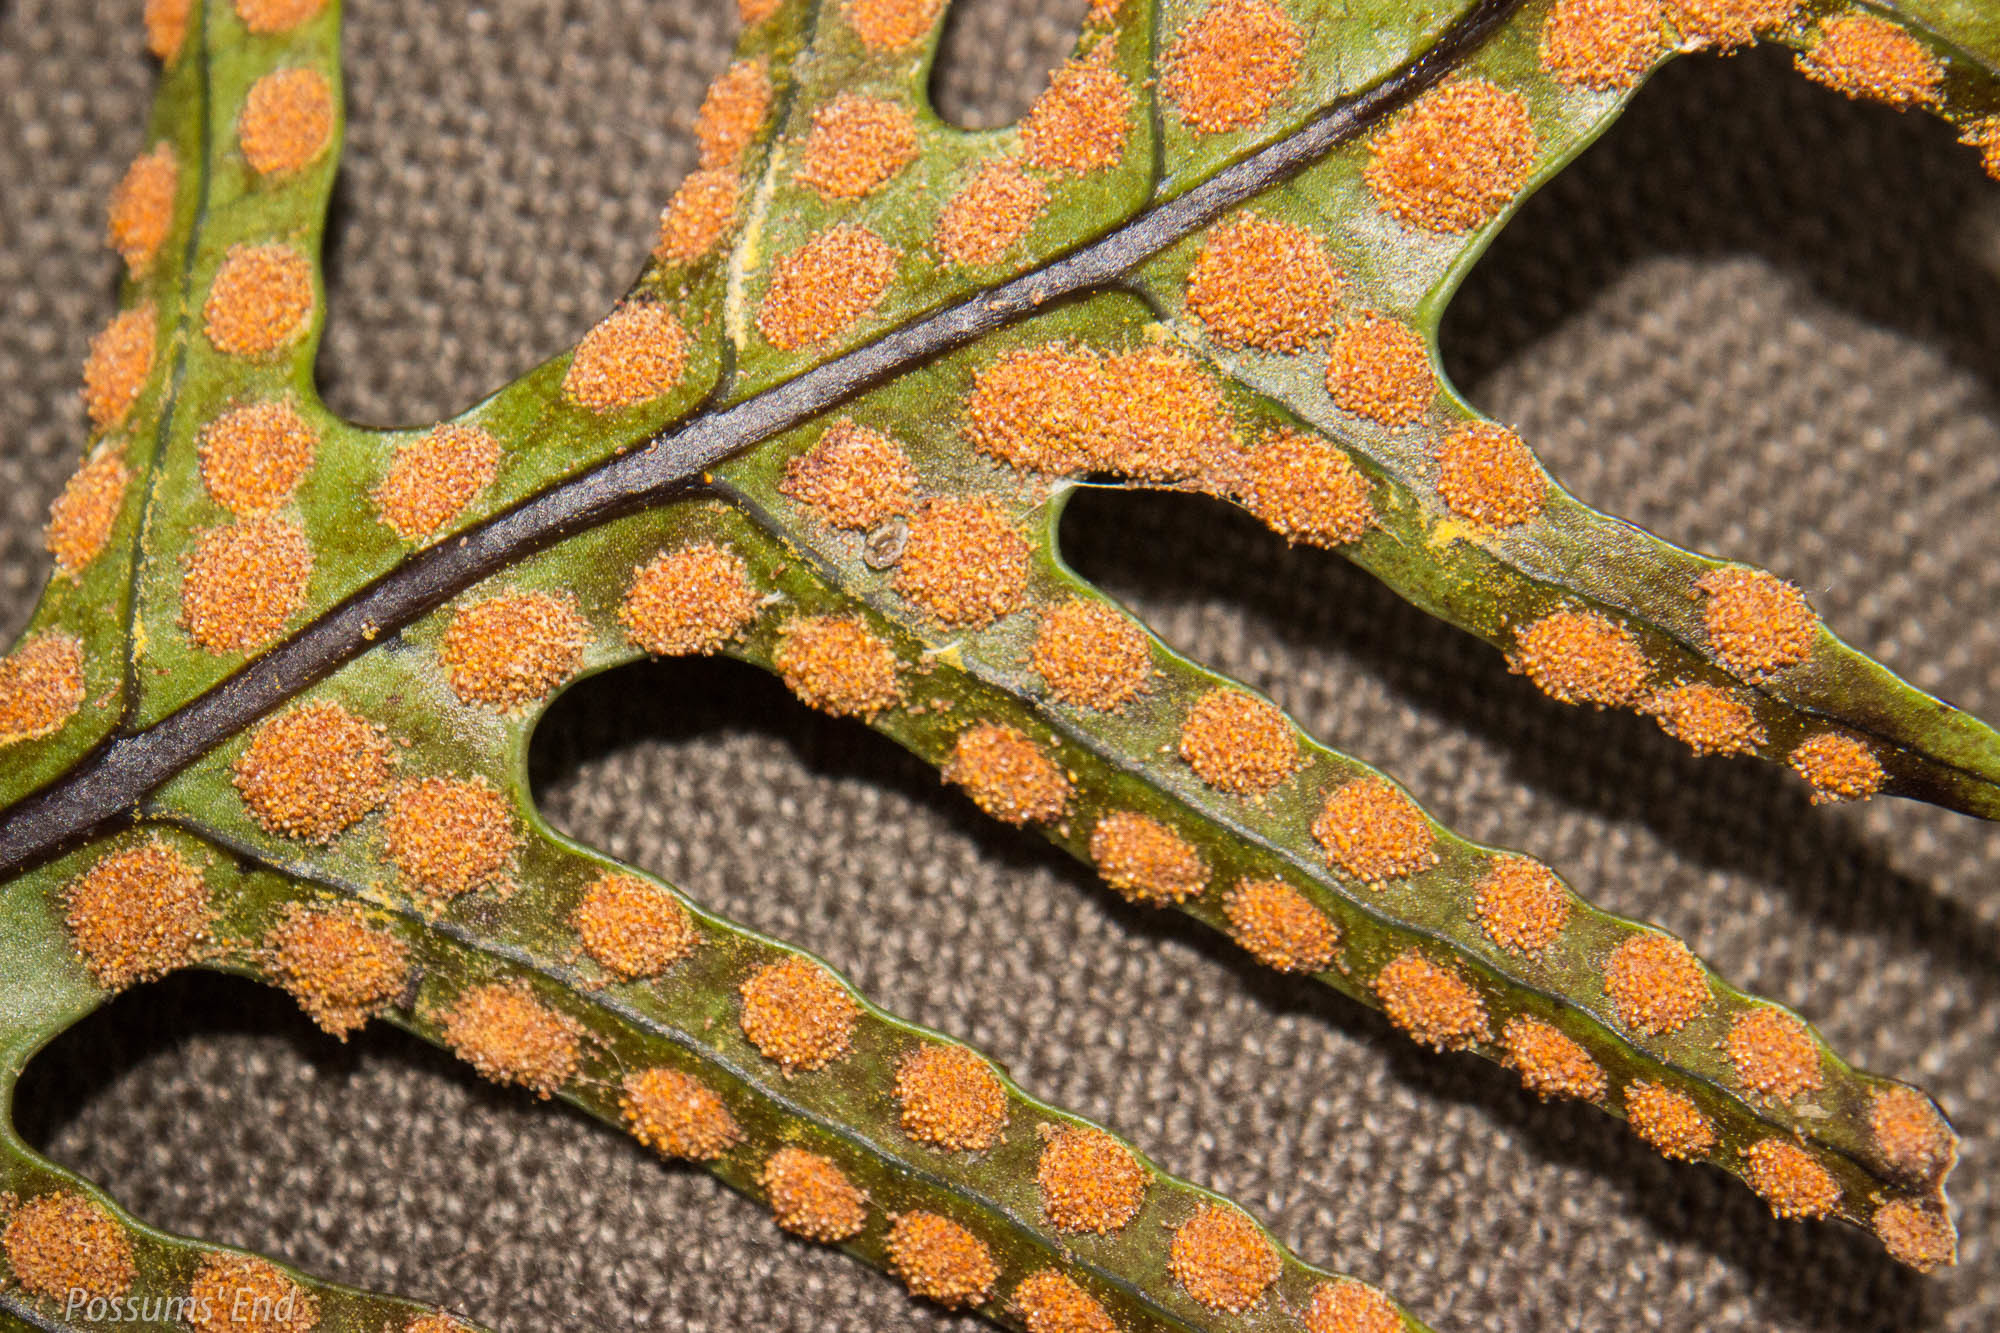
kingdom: Plantae
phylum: Tracheophyta
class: Polypodiopsida
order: Polypodiales
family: Polypodiaceae
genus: Lecanopteris
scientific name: Lecanopteris pustulata
